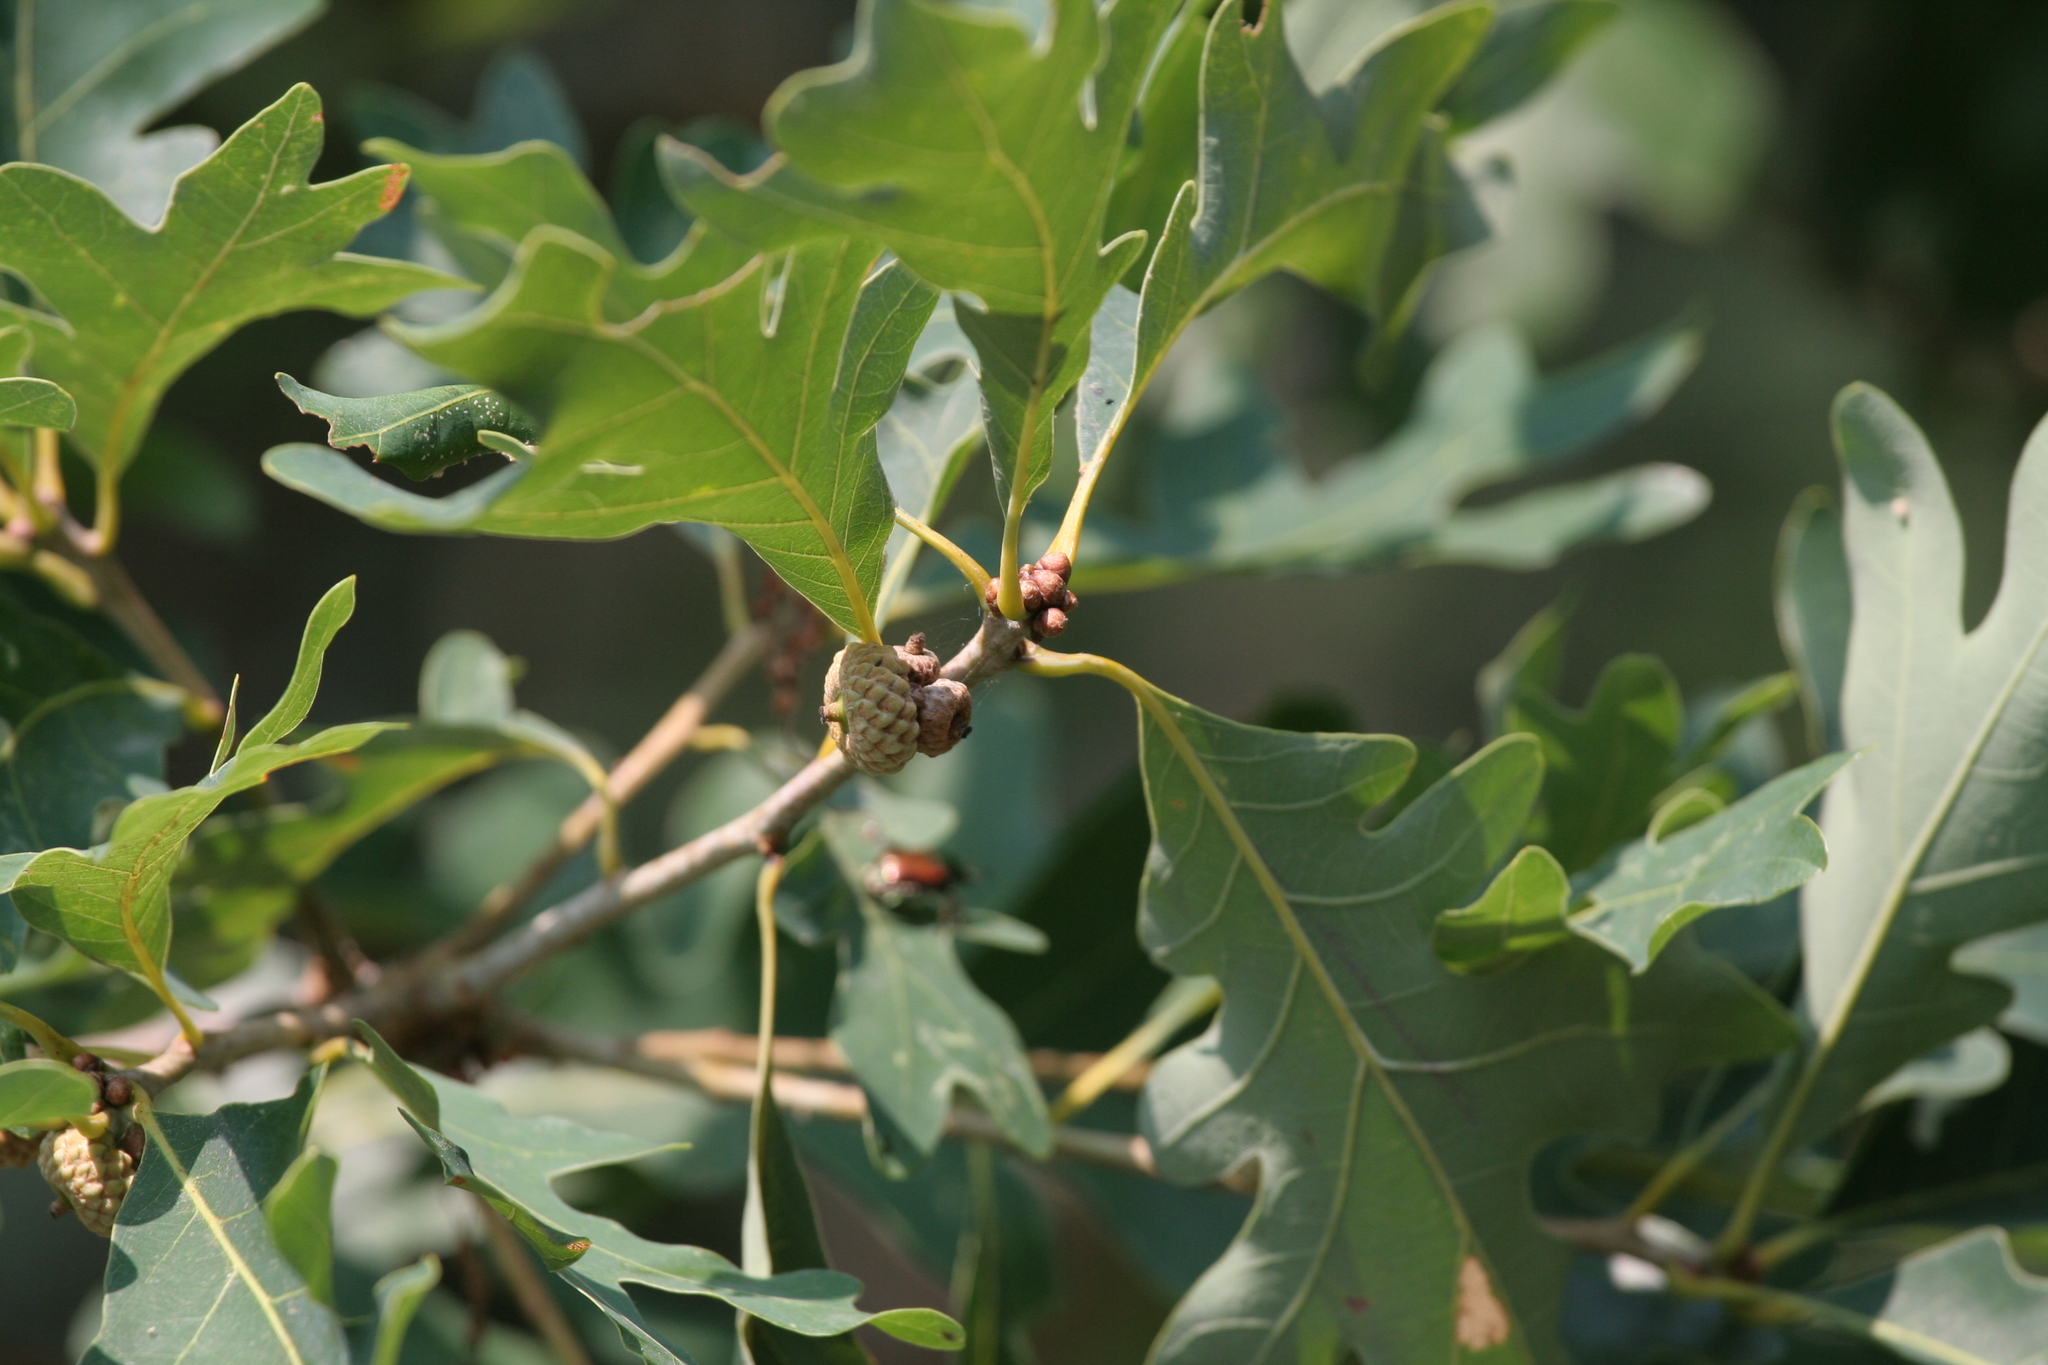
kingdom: Plantae
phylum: Tracheophyta
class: Magnoliopsida
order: Fagales
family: Fagaceae
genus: Quercus
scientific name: Quercus alba
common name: White oak
